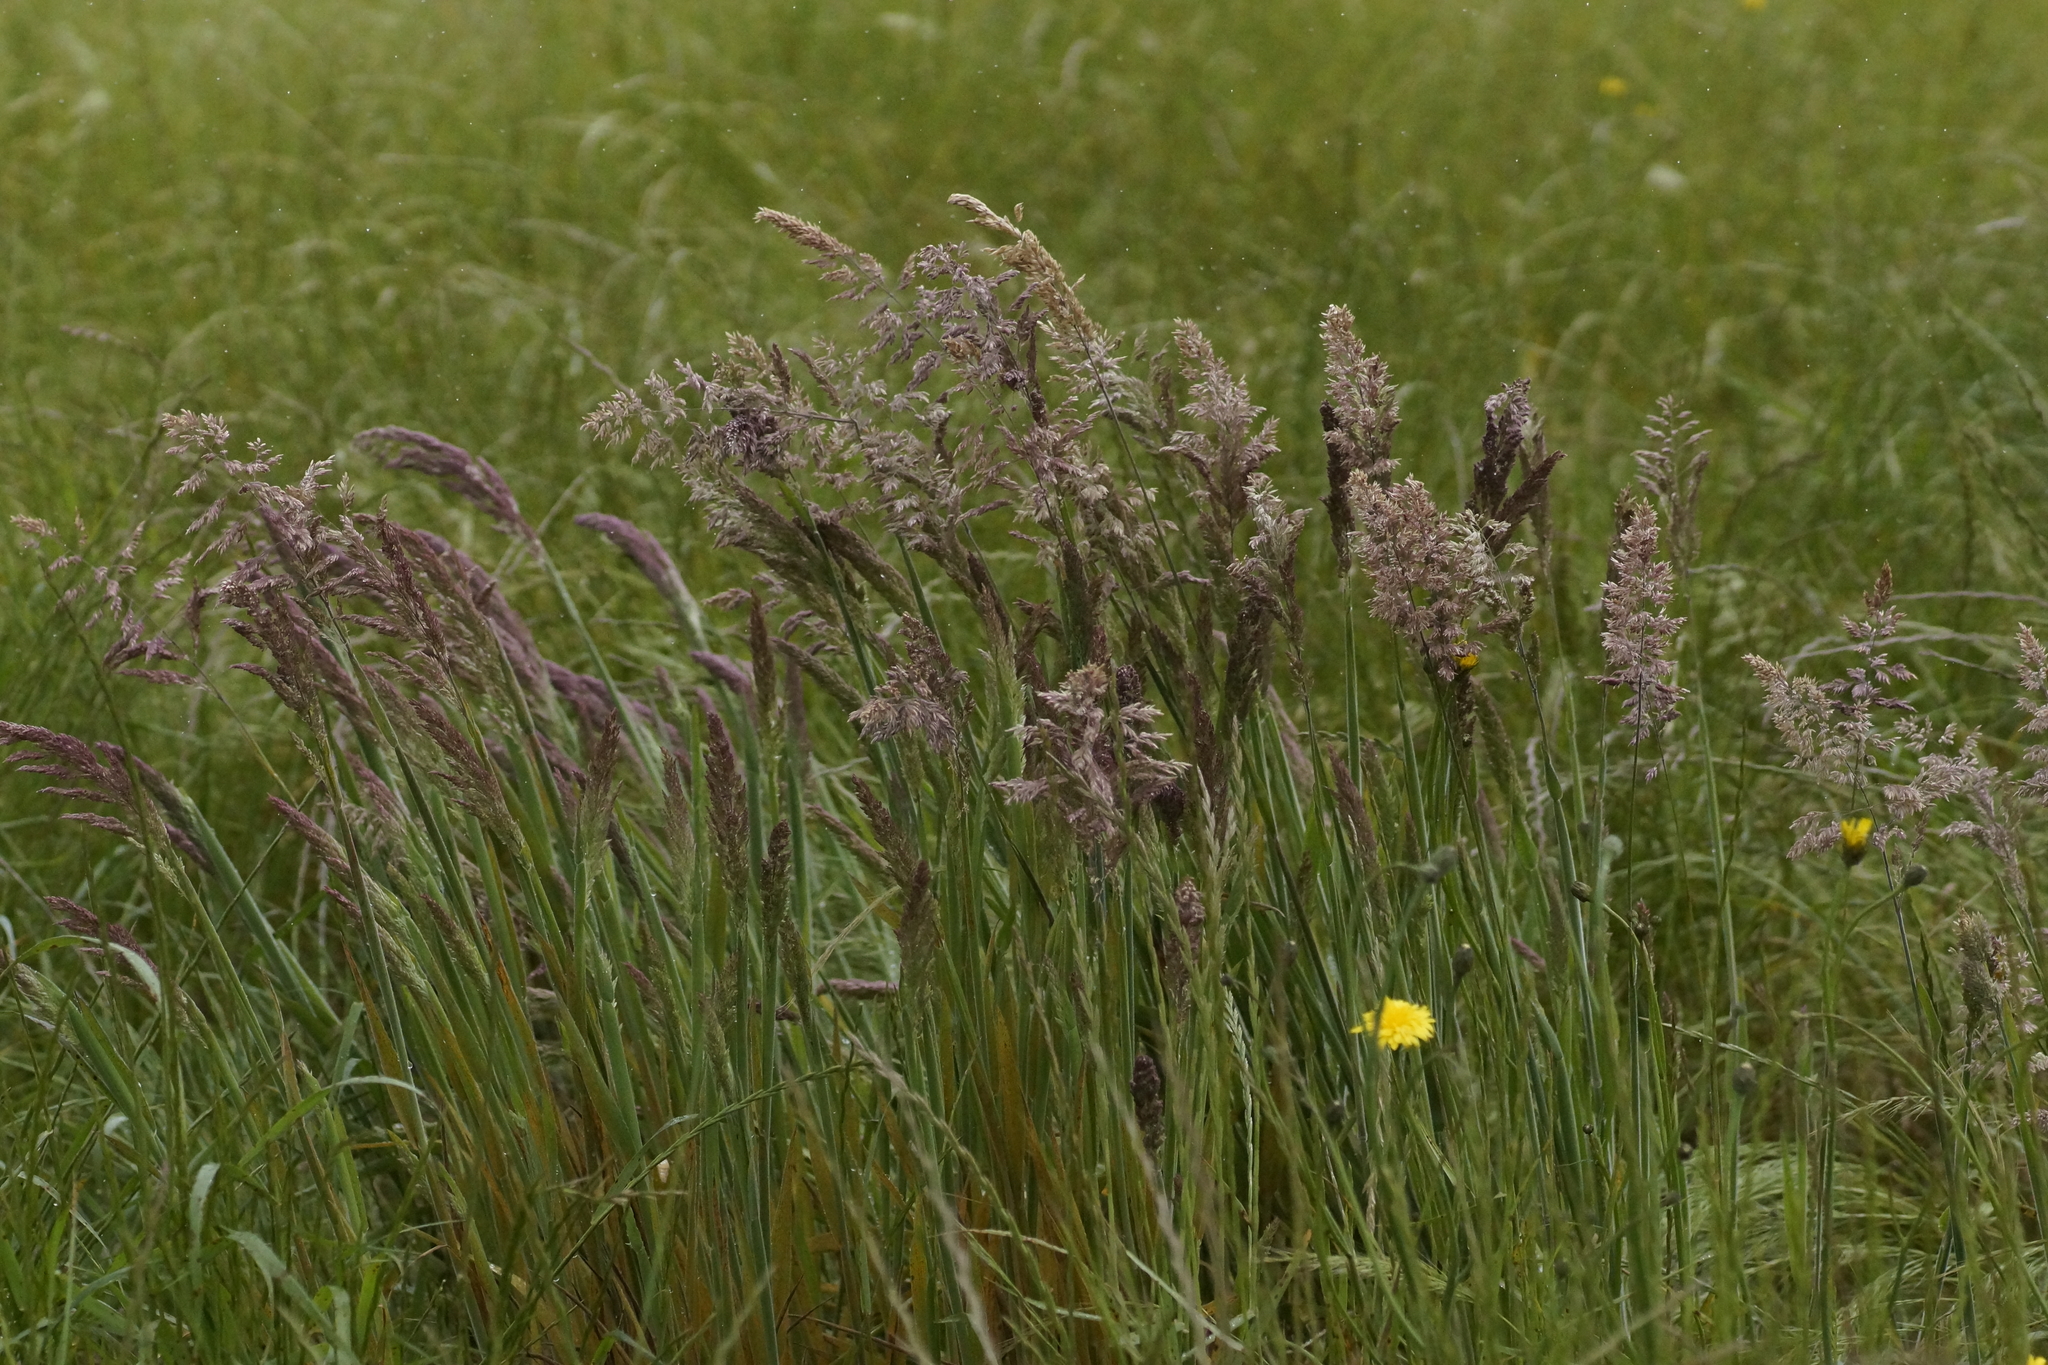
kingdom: Plantae
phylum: Tracheophyta
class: Liliopsida
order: Poales
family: Poaceae
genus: Holcus
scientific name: Holcus lanatus
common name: Yorkshire-fog
